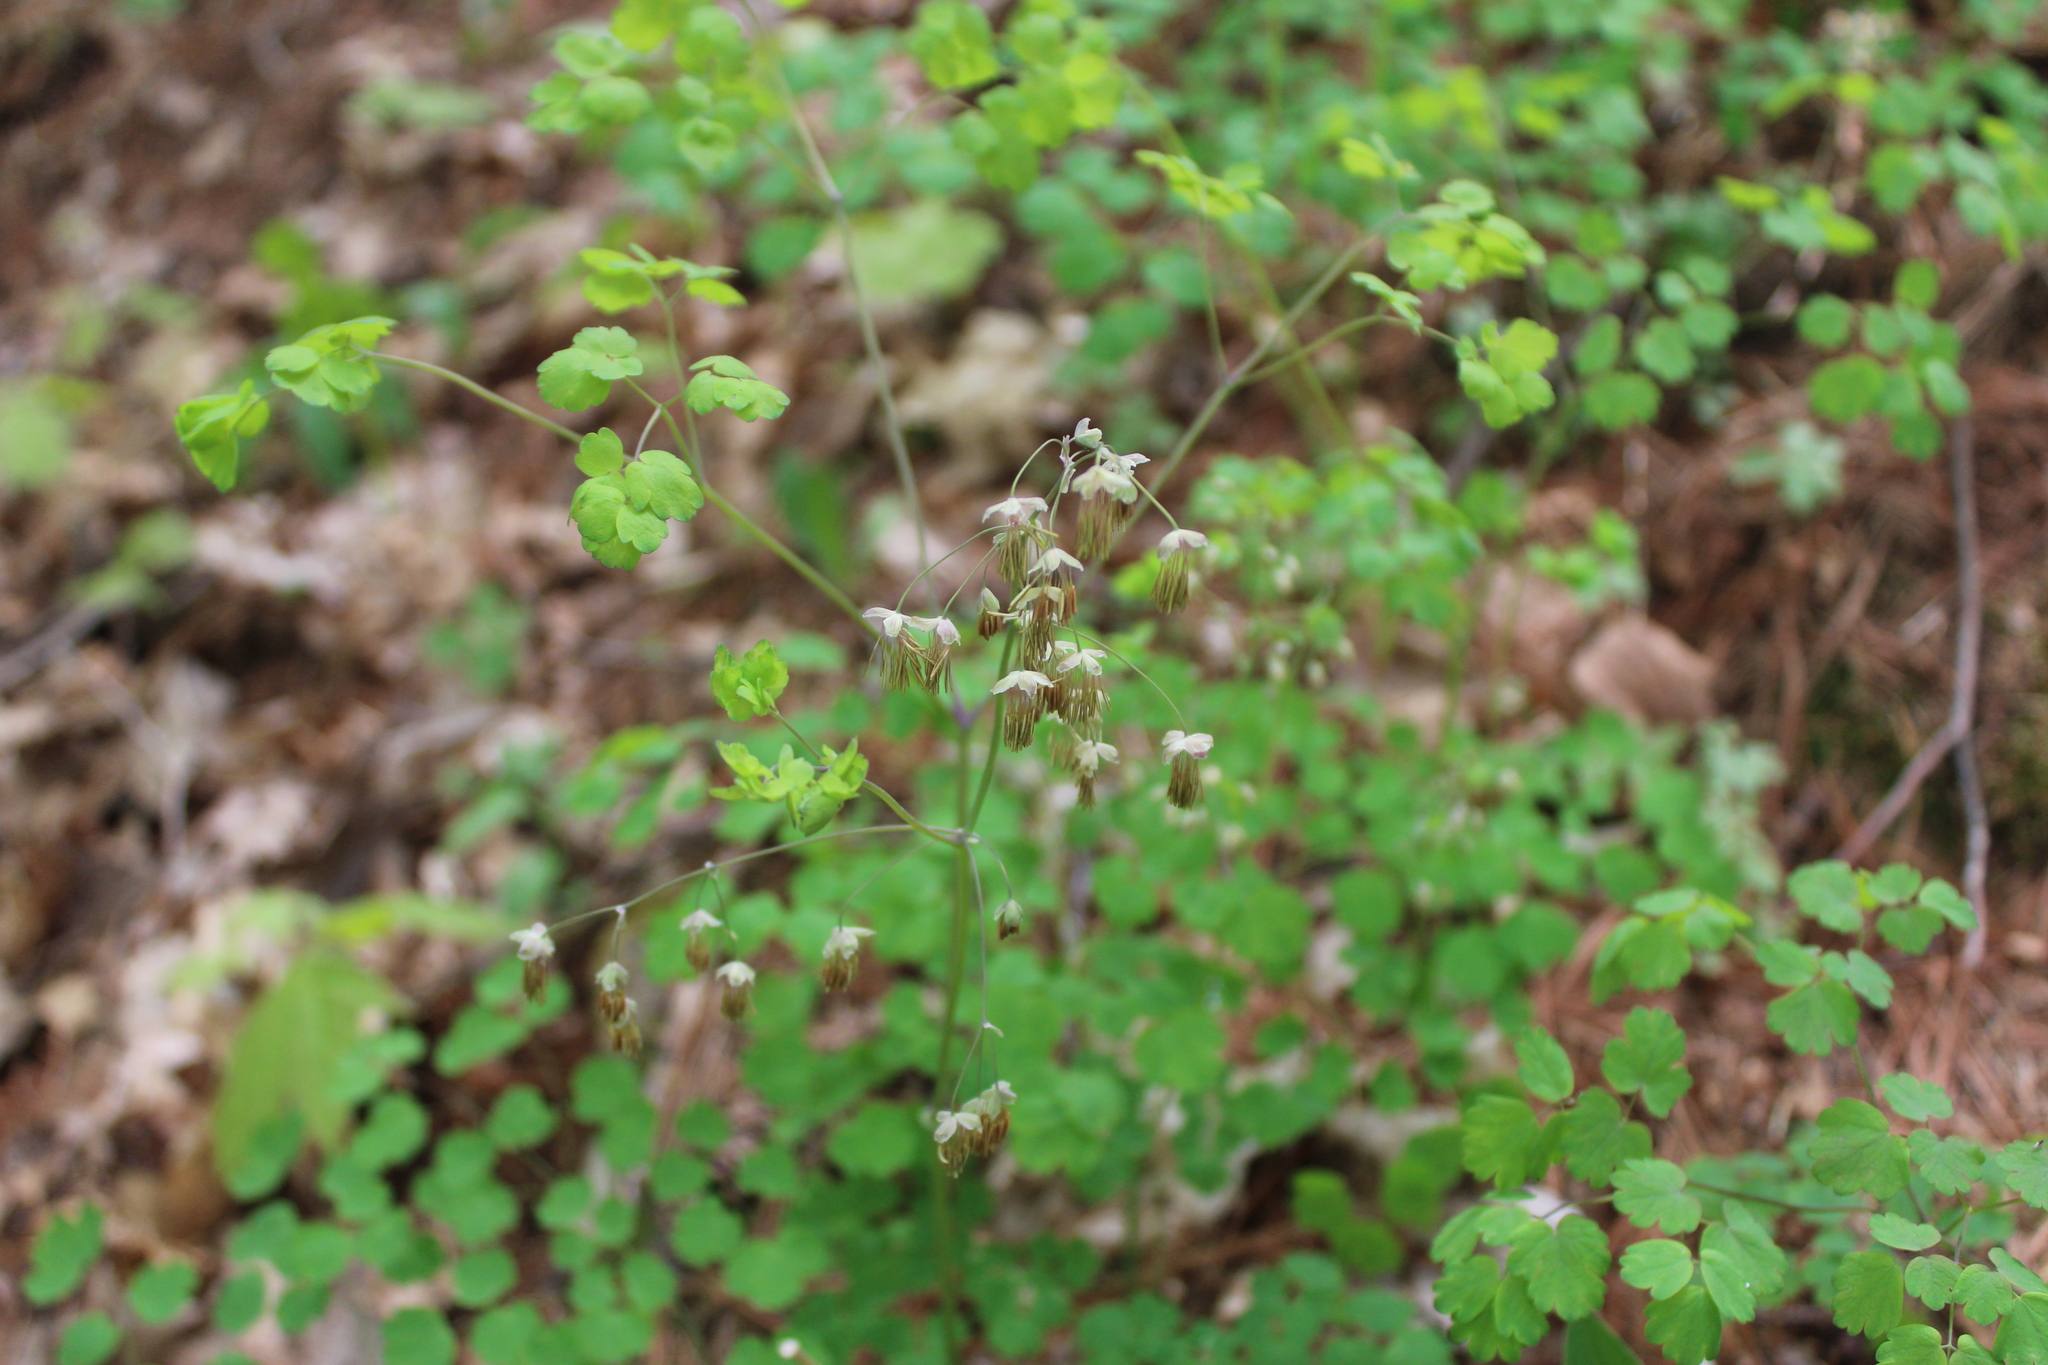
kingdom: Plantae
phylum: Tracheophyta
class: Magnoliopsida
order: Ranunculales
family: Ranunculaceae
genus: Thalictrum
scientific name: Thalictrum dioicum
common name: Early meadow-rue
